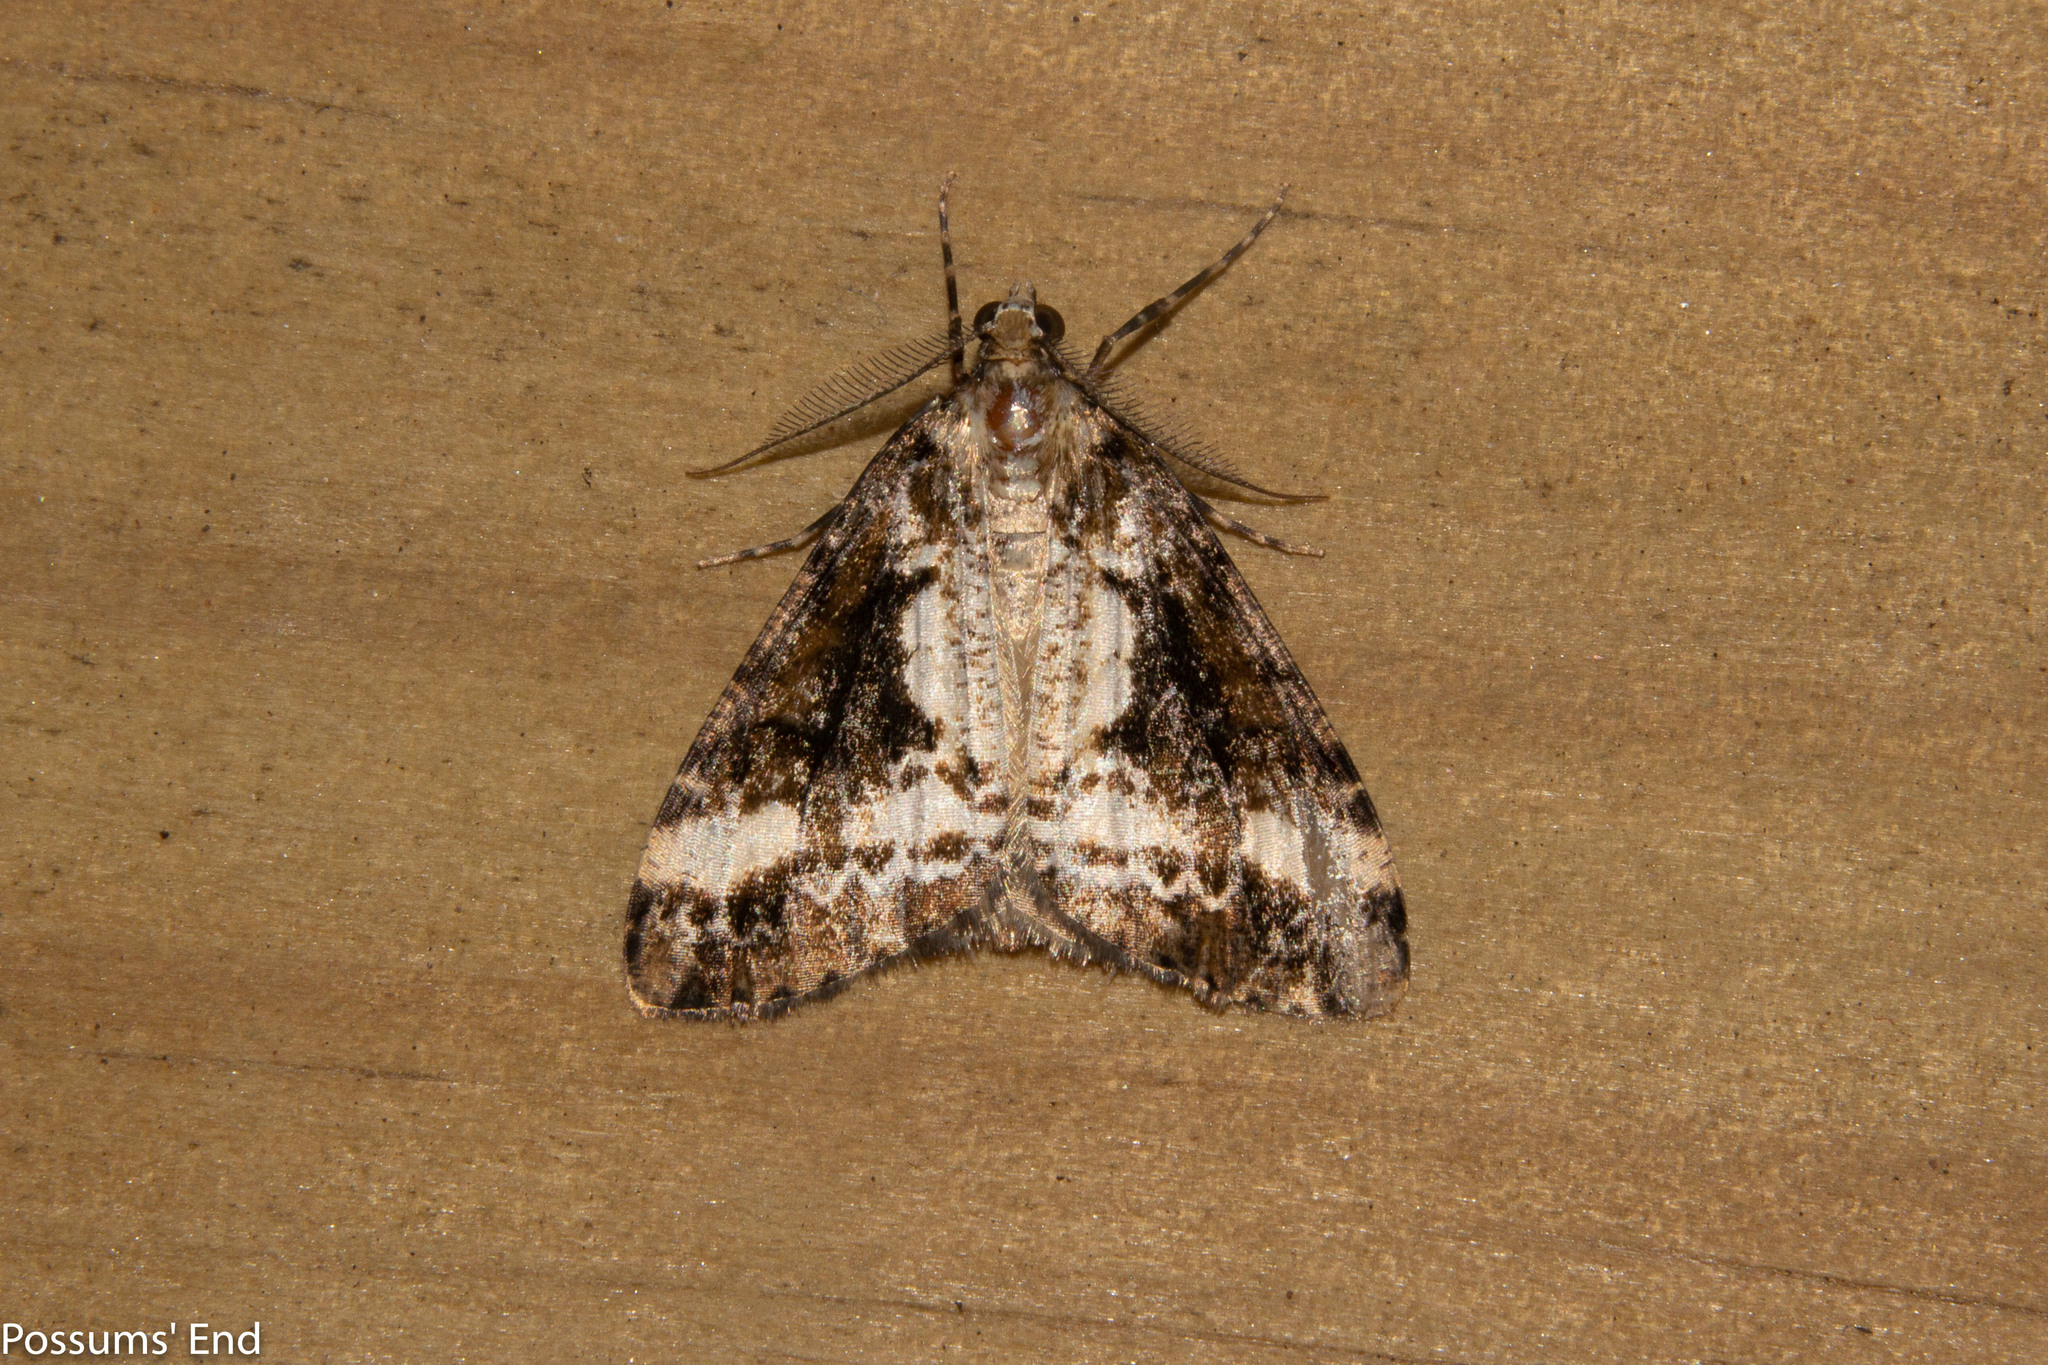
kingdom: Animalia
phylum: Arthropoda
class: Insecta
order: Lepidoptera
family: Geometridae
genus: Pseudocoremia
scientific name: Pseudocoremia leucelaea
